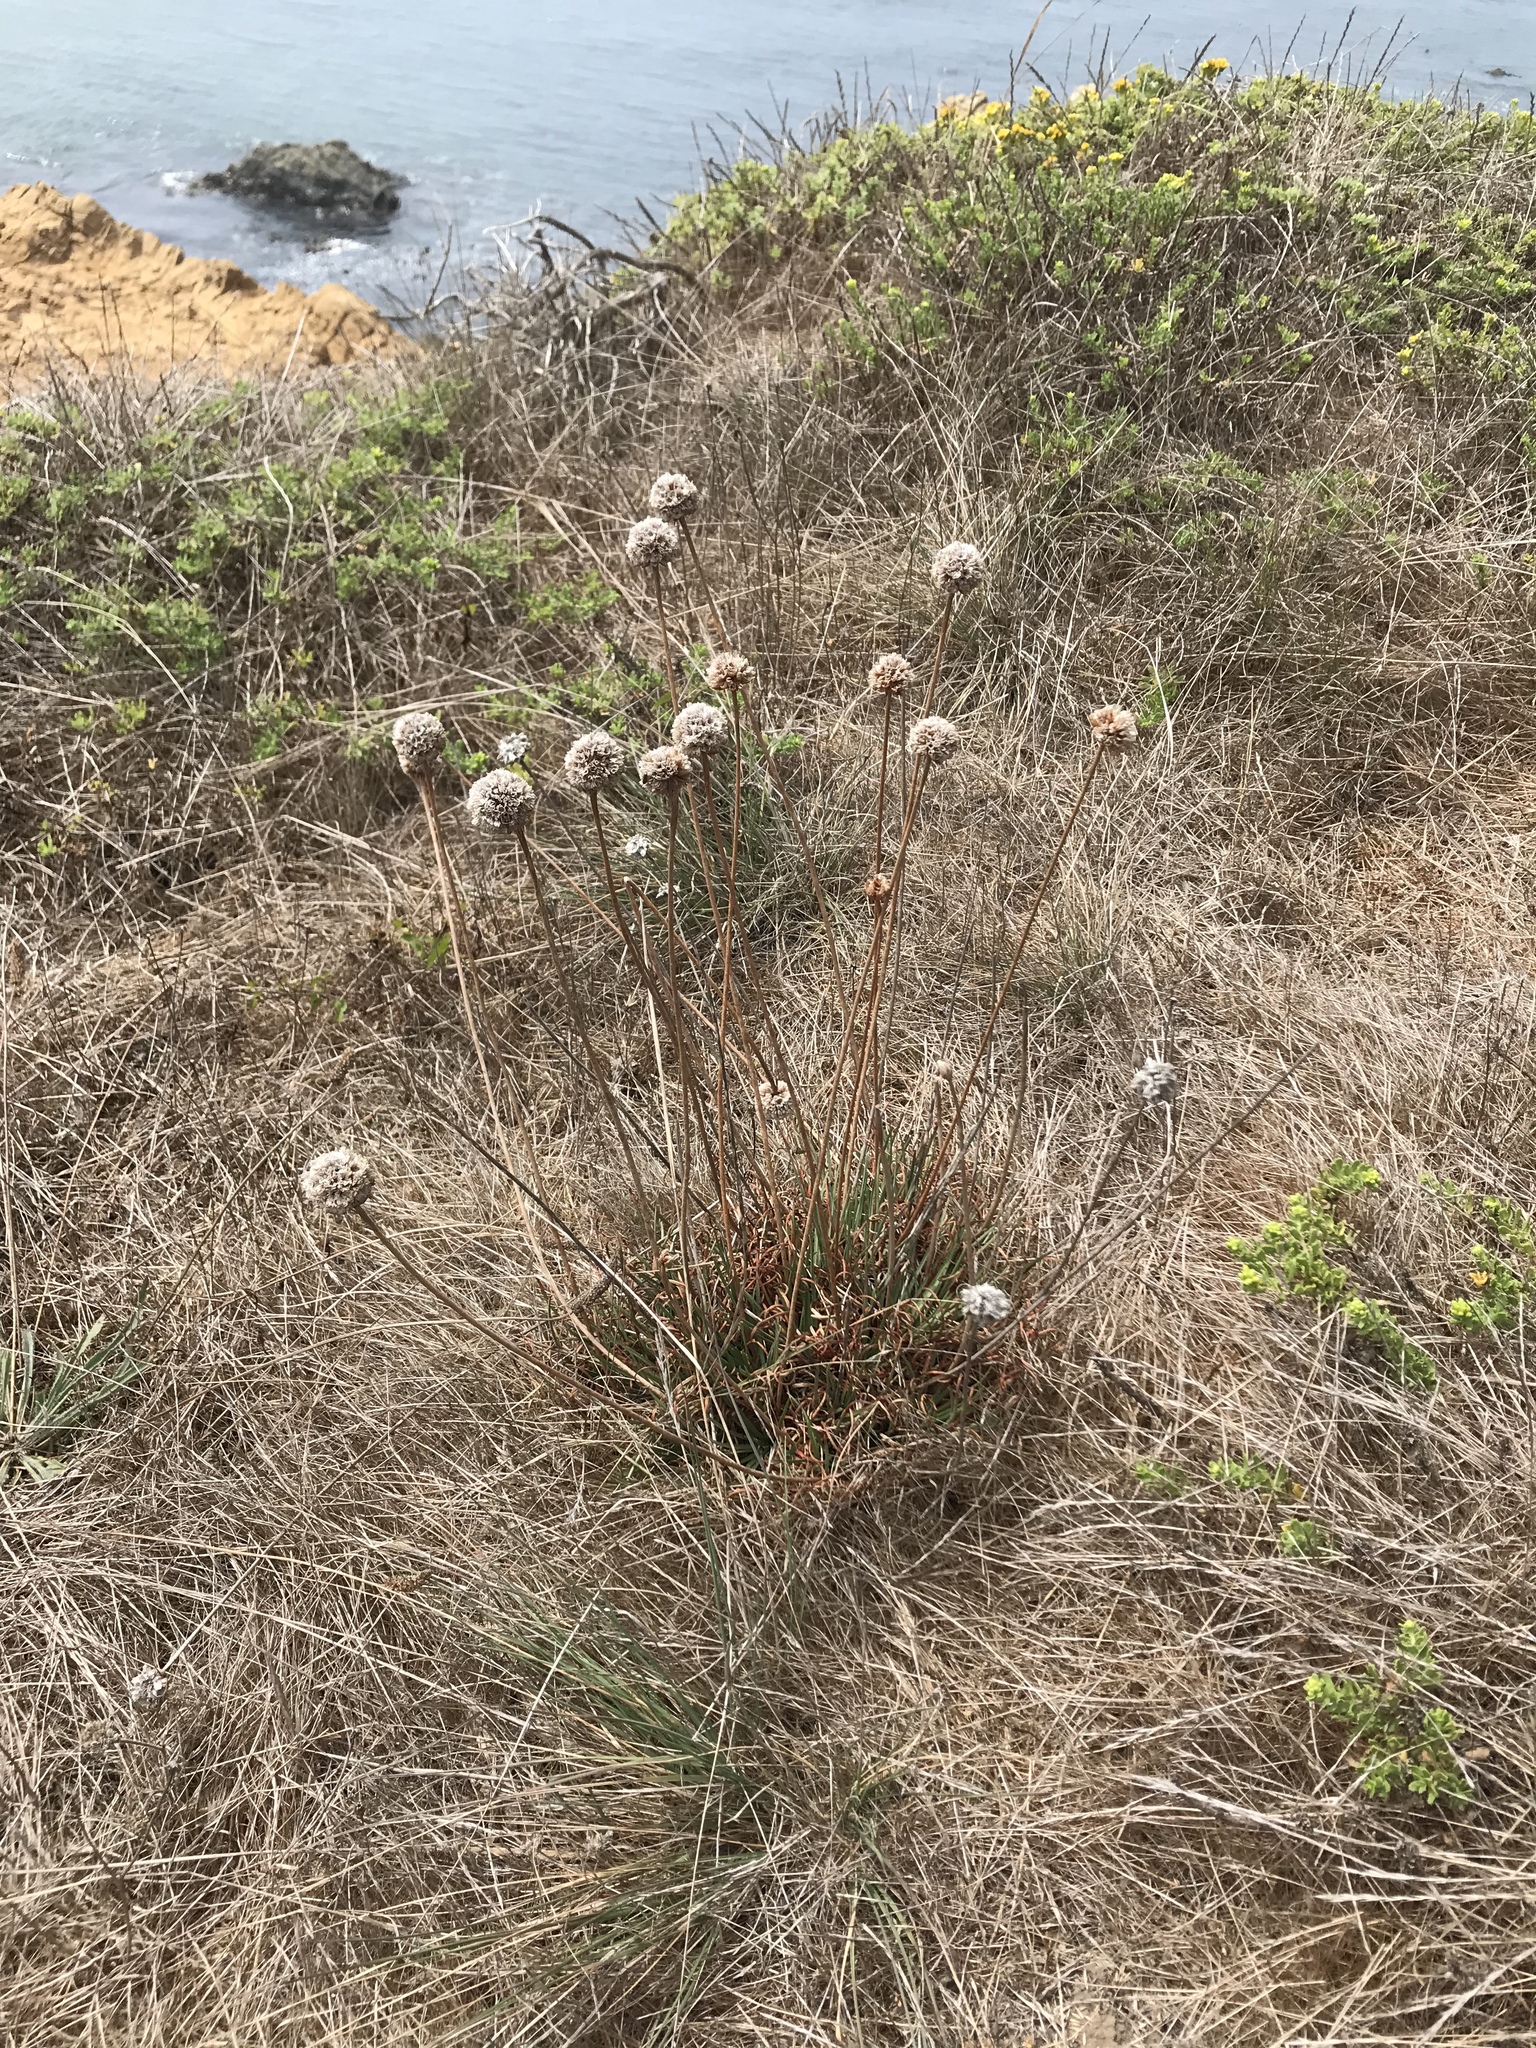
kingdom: Plantae
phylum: Tracheophyta
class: Magnoliopsida
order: Caryophyllales
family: Plumbaginaceae
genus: Armeria
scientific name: Armeria maritima
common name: Thrift
